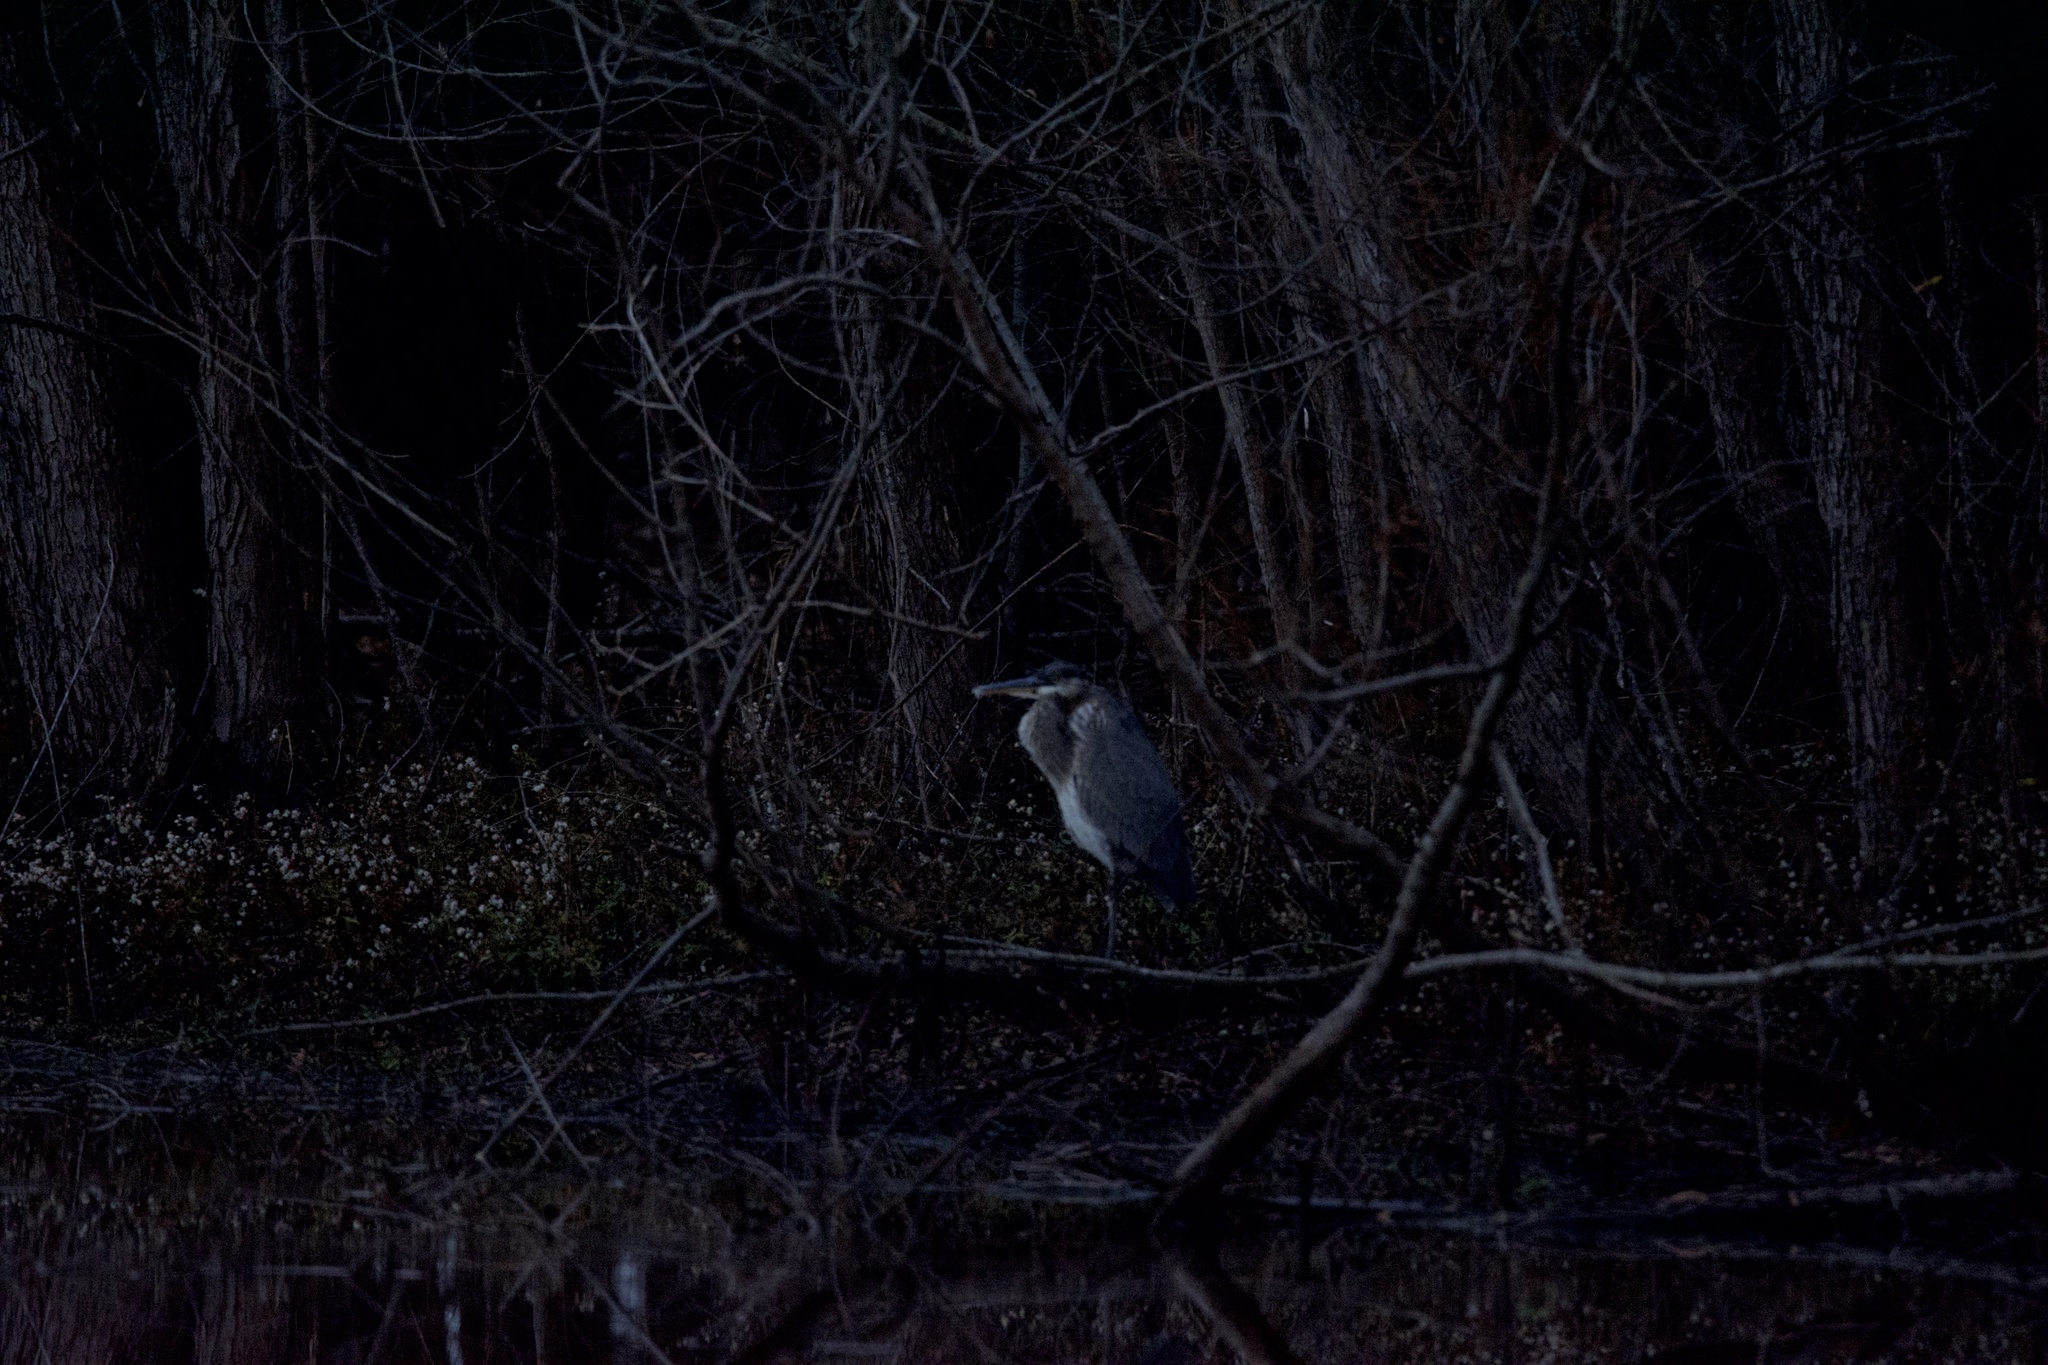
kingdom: Animalia
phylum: Chordata
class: Aves
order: Pelecaniformes
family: Ardeidae
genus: Ardea
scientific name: Ardea herodias
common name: Great blue heron
